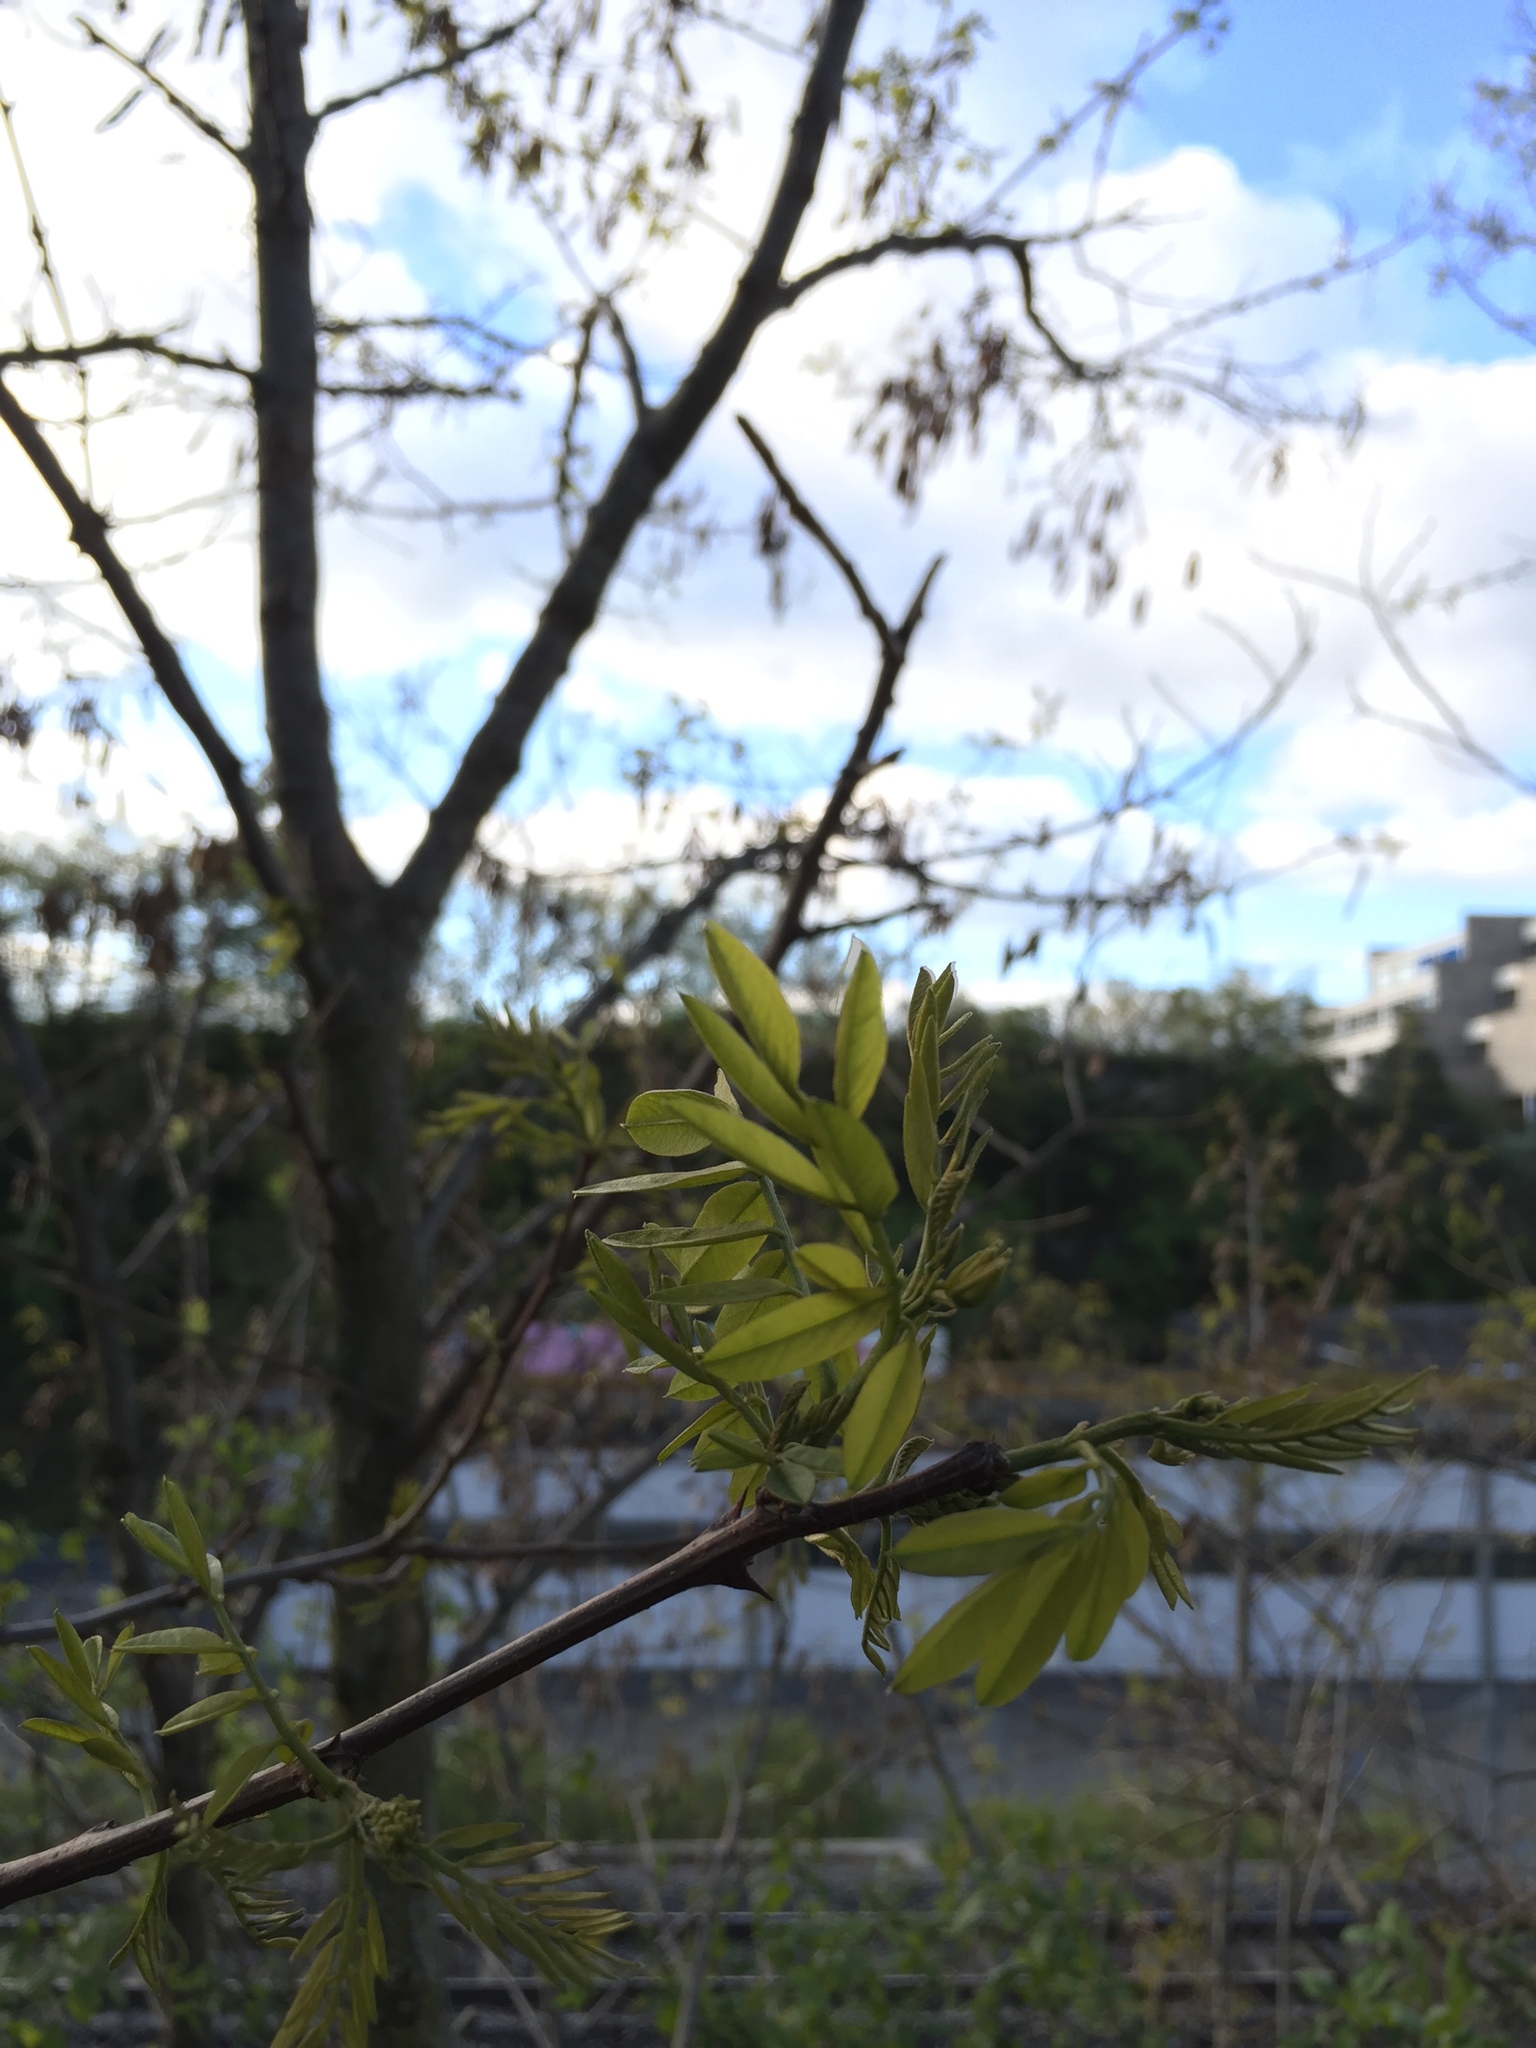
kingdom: Plantae
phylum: Tracheophyta
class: Magnoliopsida
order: Fabales
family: Fabaceae
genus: Robinia
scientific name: Robinia pseudoacacia
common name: Black locust
